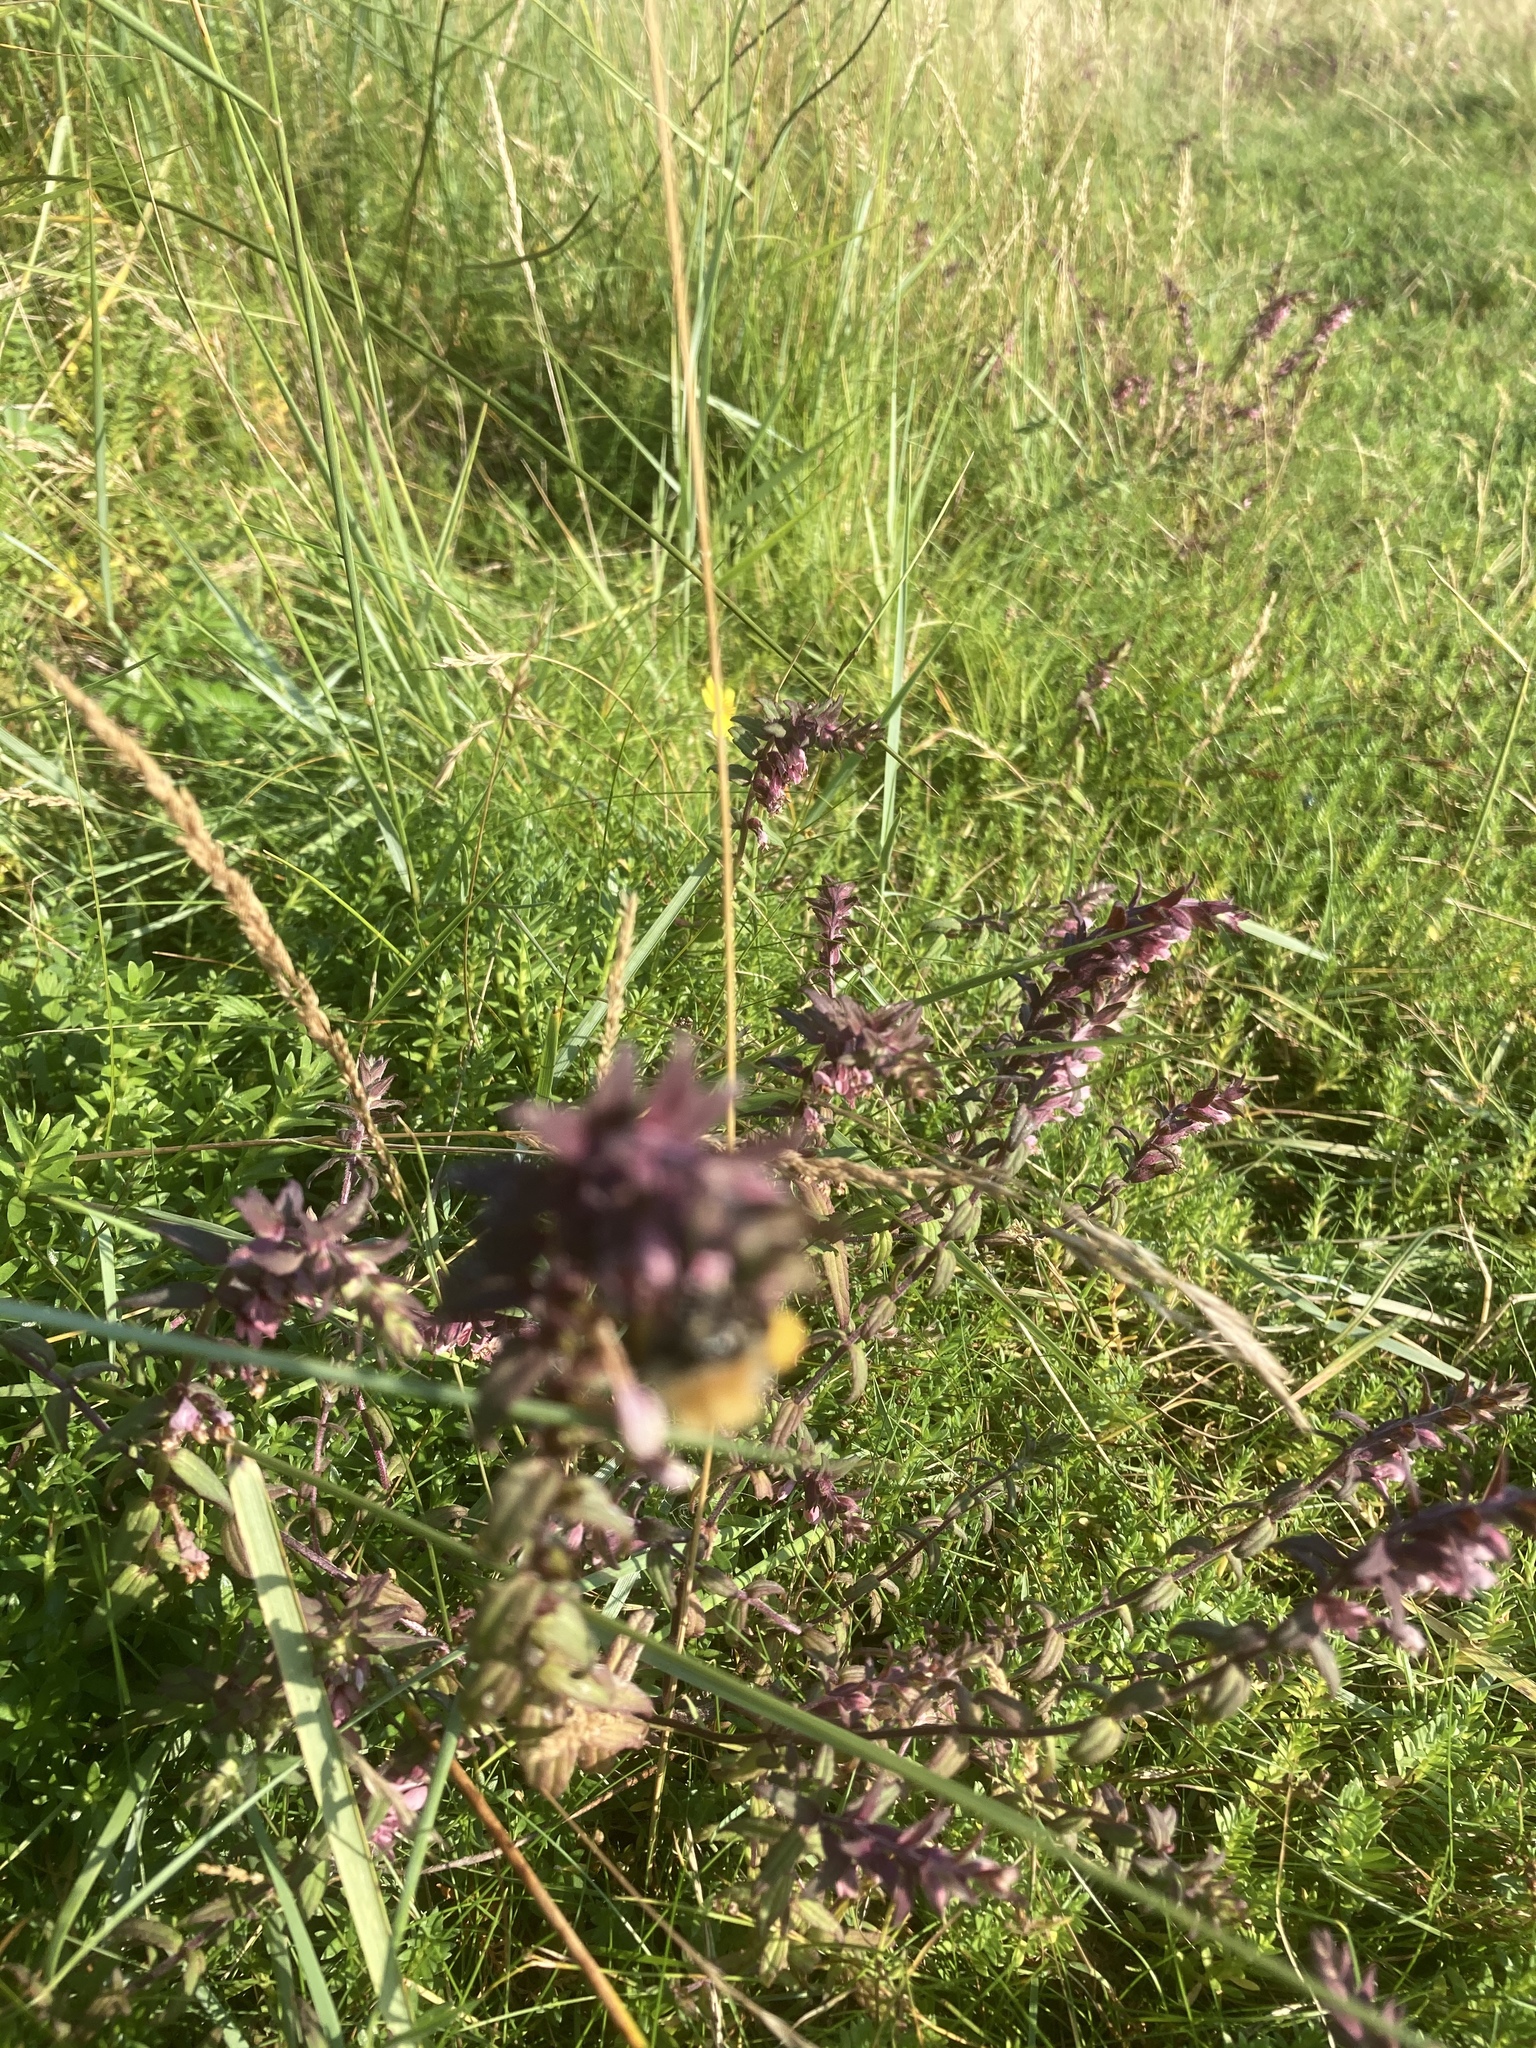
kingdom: Plantae
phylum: Tracheophyta
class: Magnoliopsida
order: Lamiales
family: Orobanchaceae
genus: Odontites
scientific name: Odontites vulgaris
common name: Broomrape
